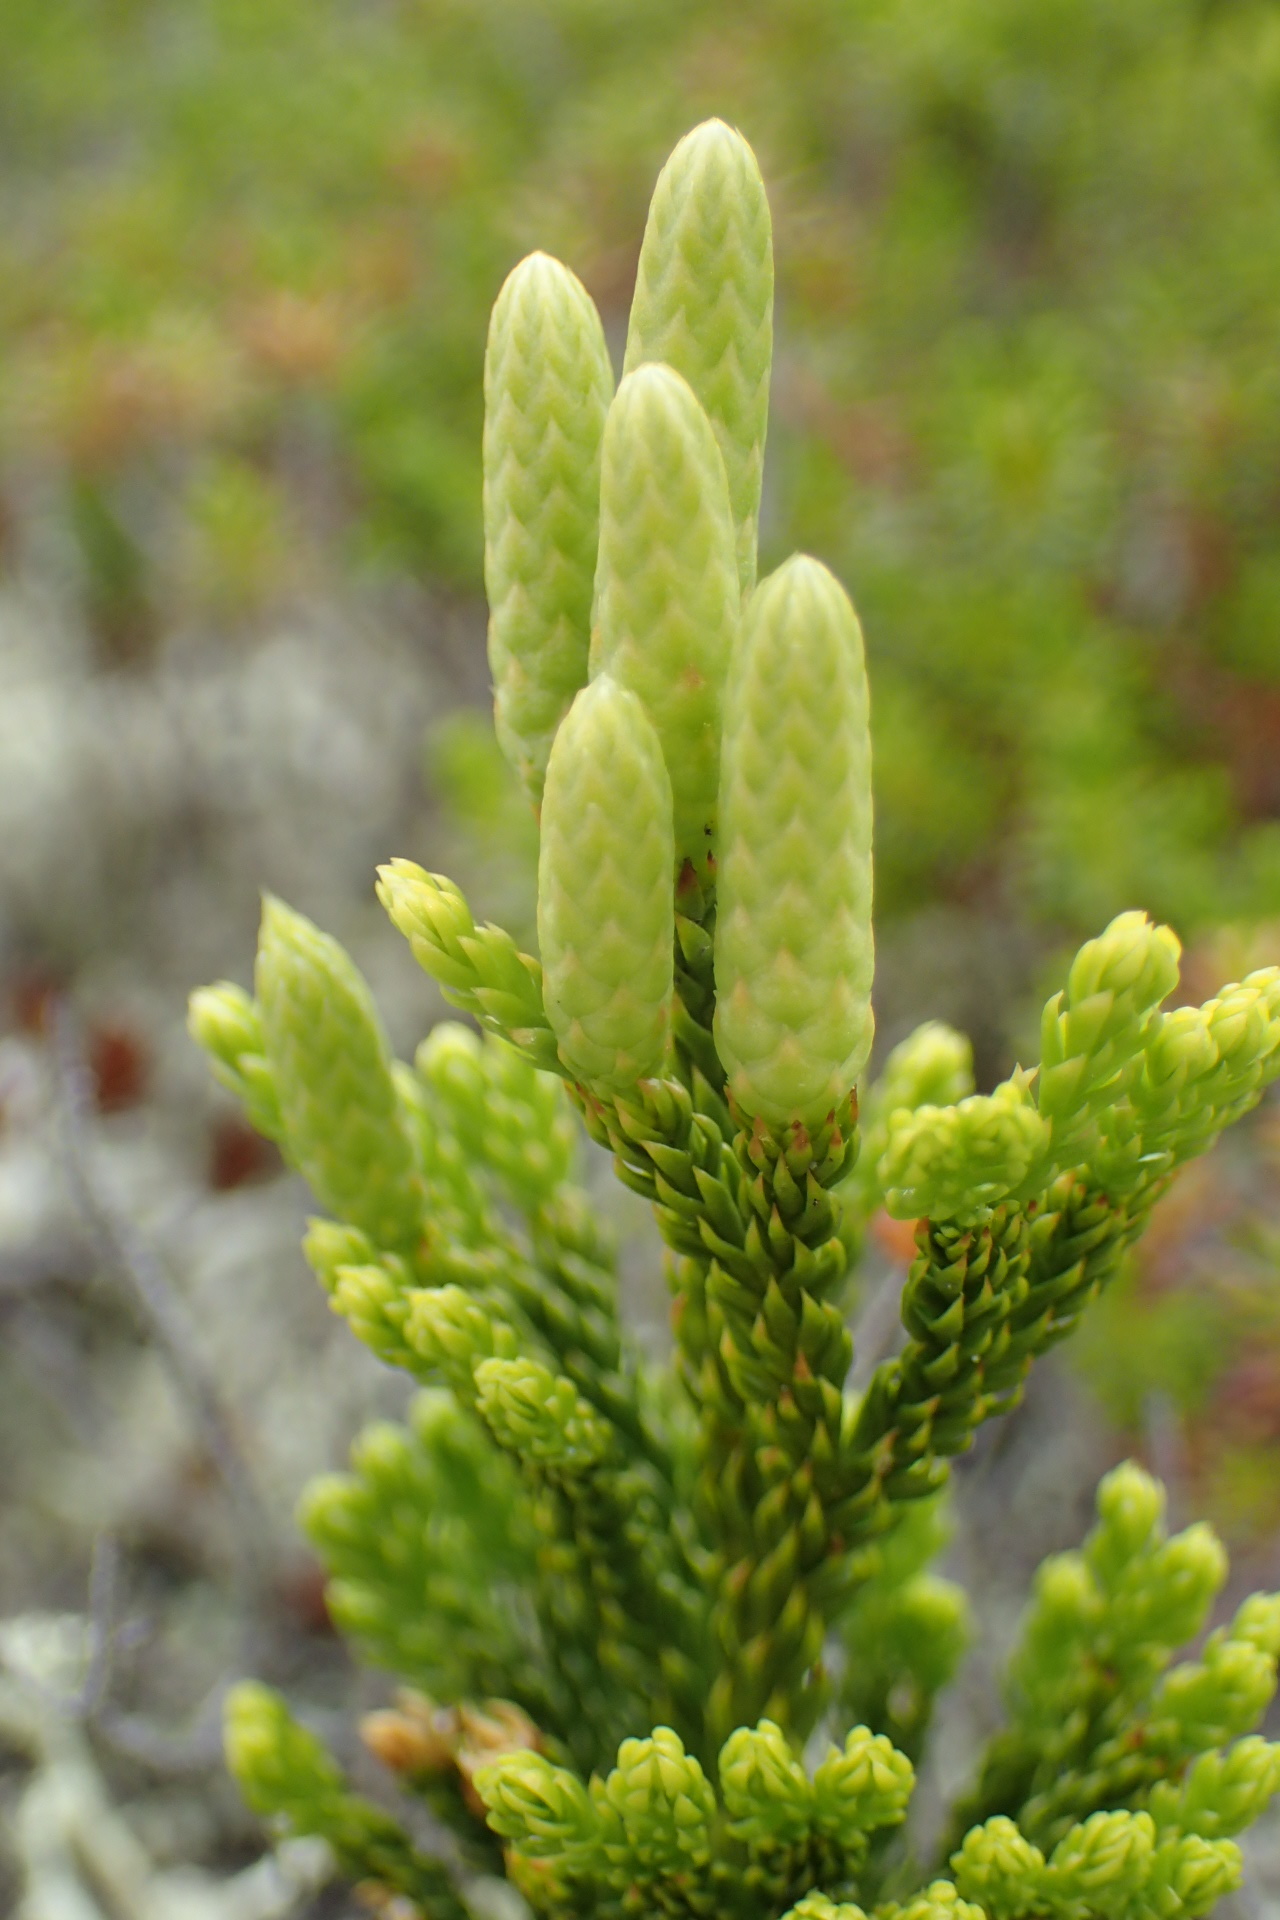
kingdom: Plantae
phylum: Tracheophyta
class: Lycopodiopsida
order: Lycopodiales
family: Lycopodiaceae
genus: Dendrolycopodium
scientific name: Dendrolycopodium hickeyi
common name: Hickey's clubmoss
